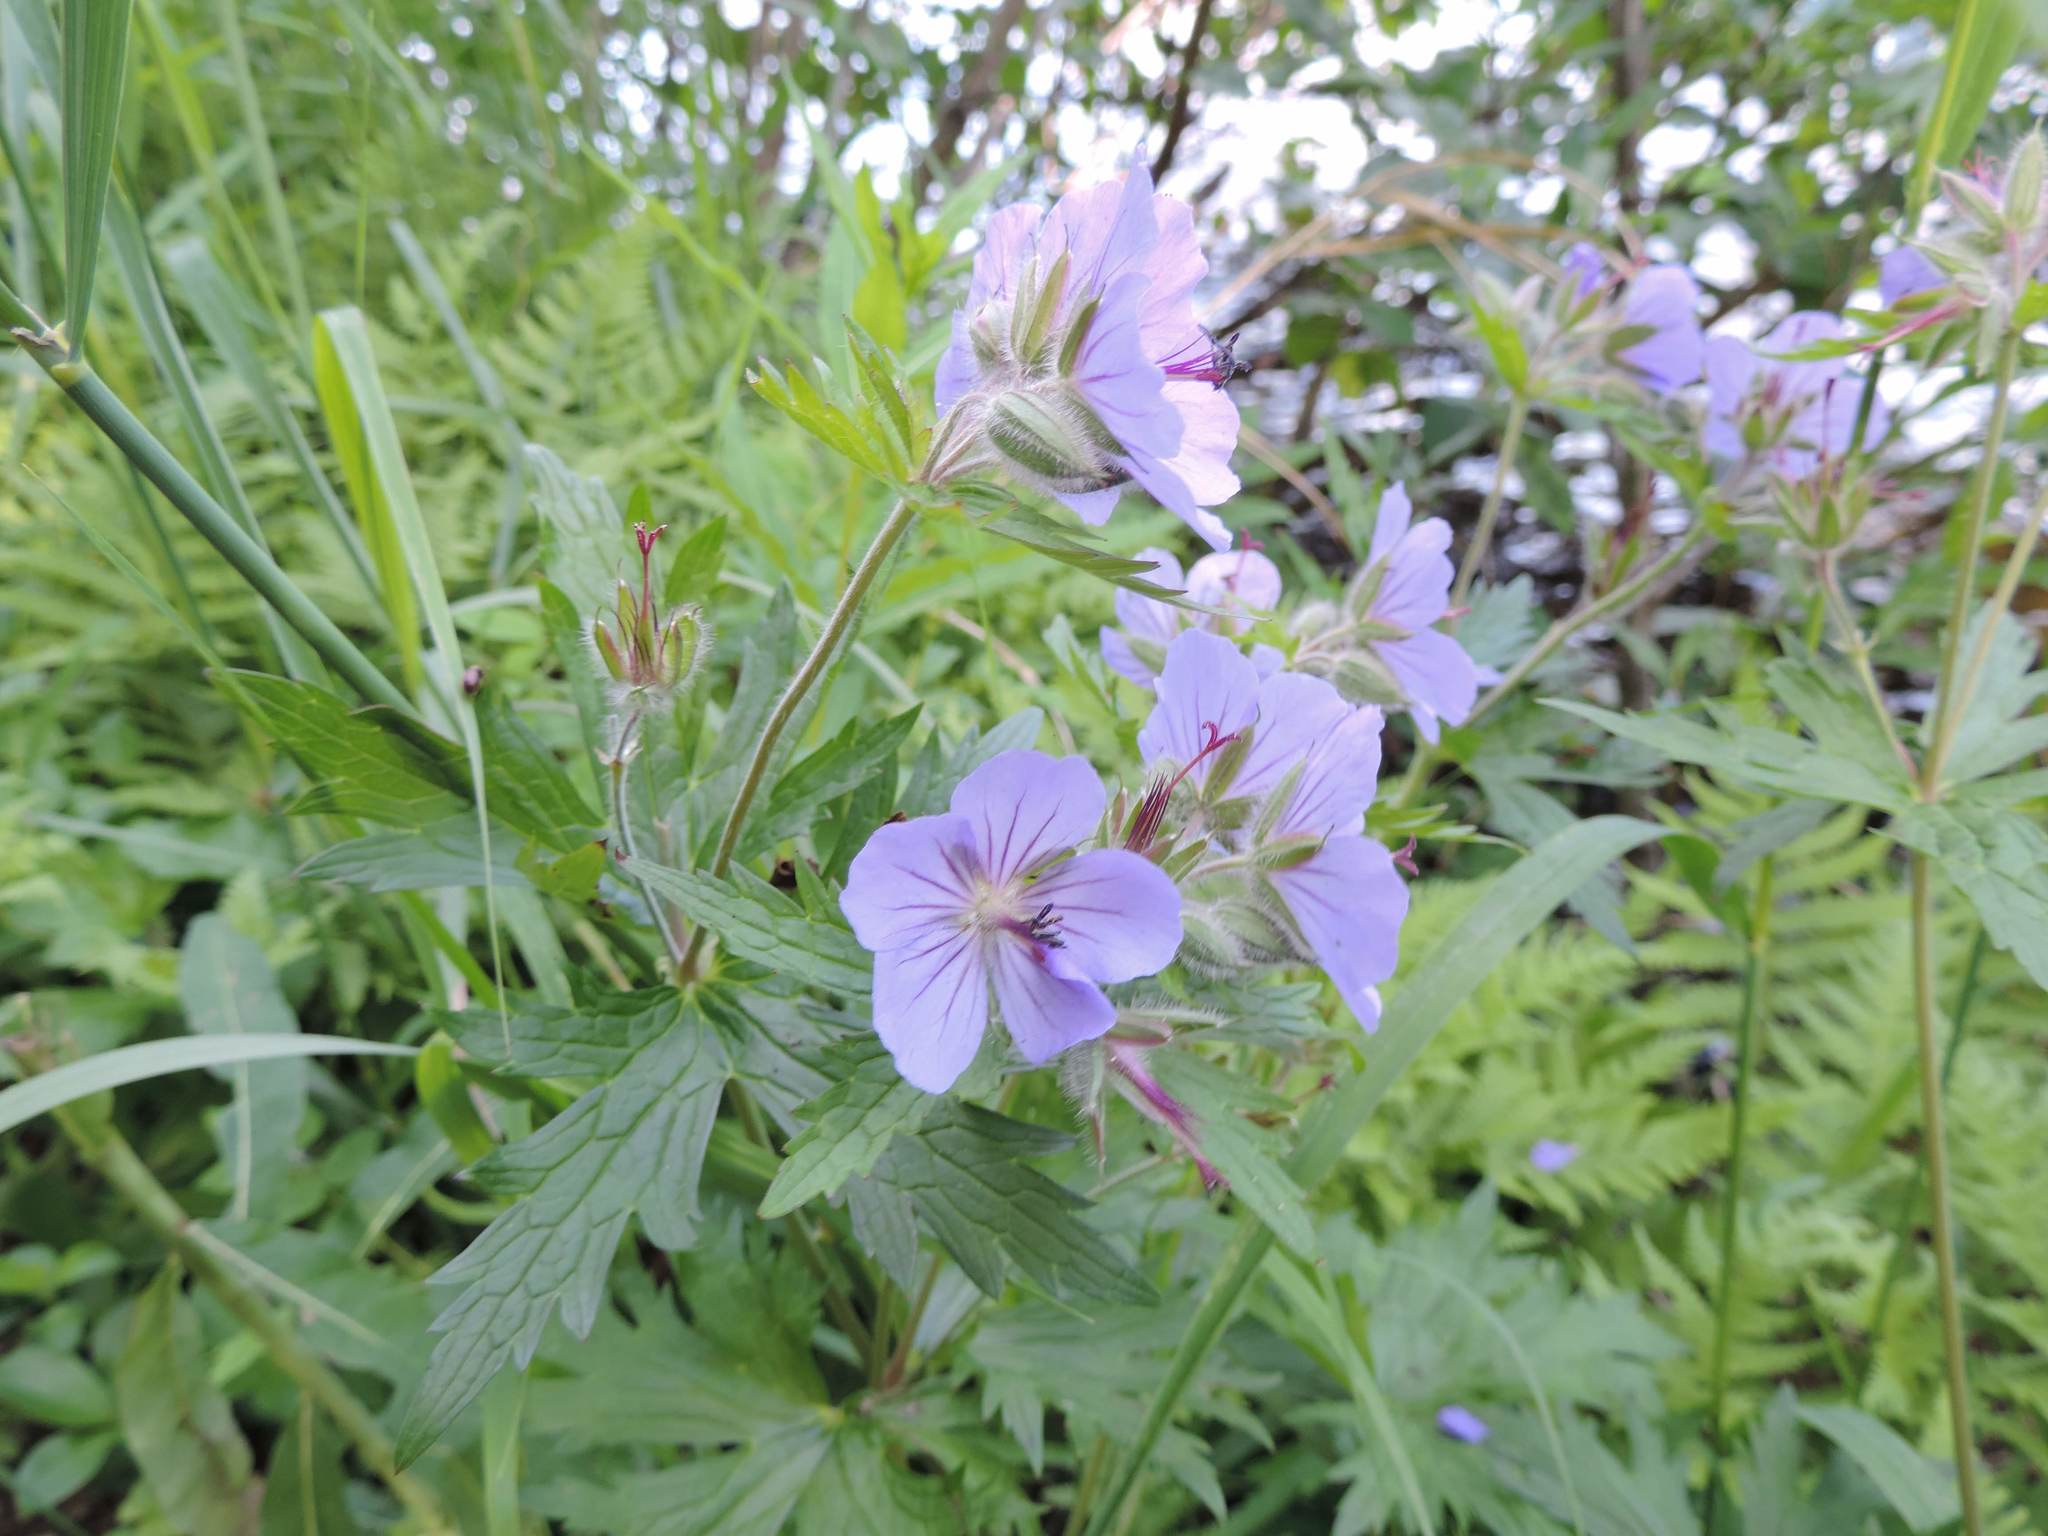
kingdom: Plantae
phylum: Tracheophyta
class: Magnoliopsida
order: Geraniales
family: Geraniaceae
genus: Geranium
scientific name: Geranium erianthum
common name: Northern crane's-bill
